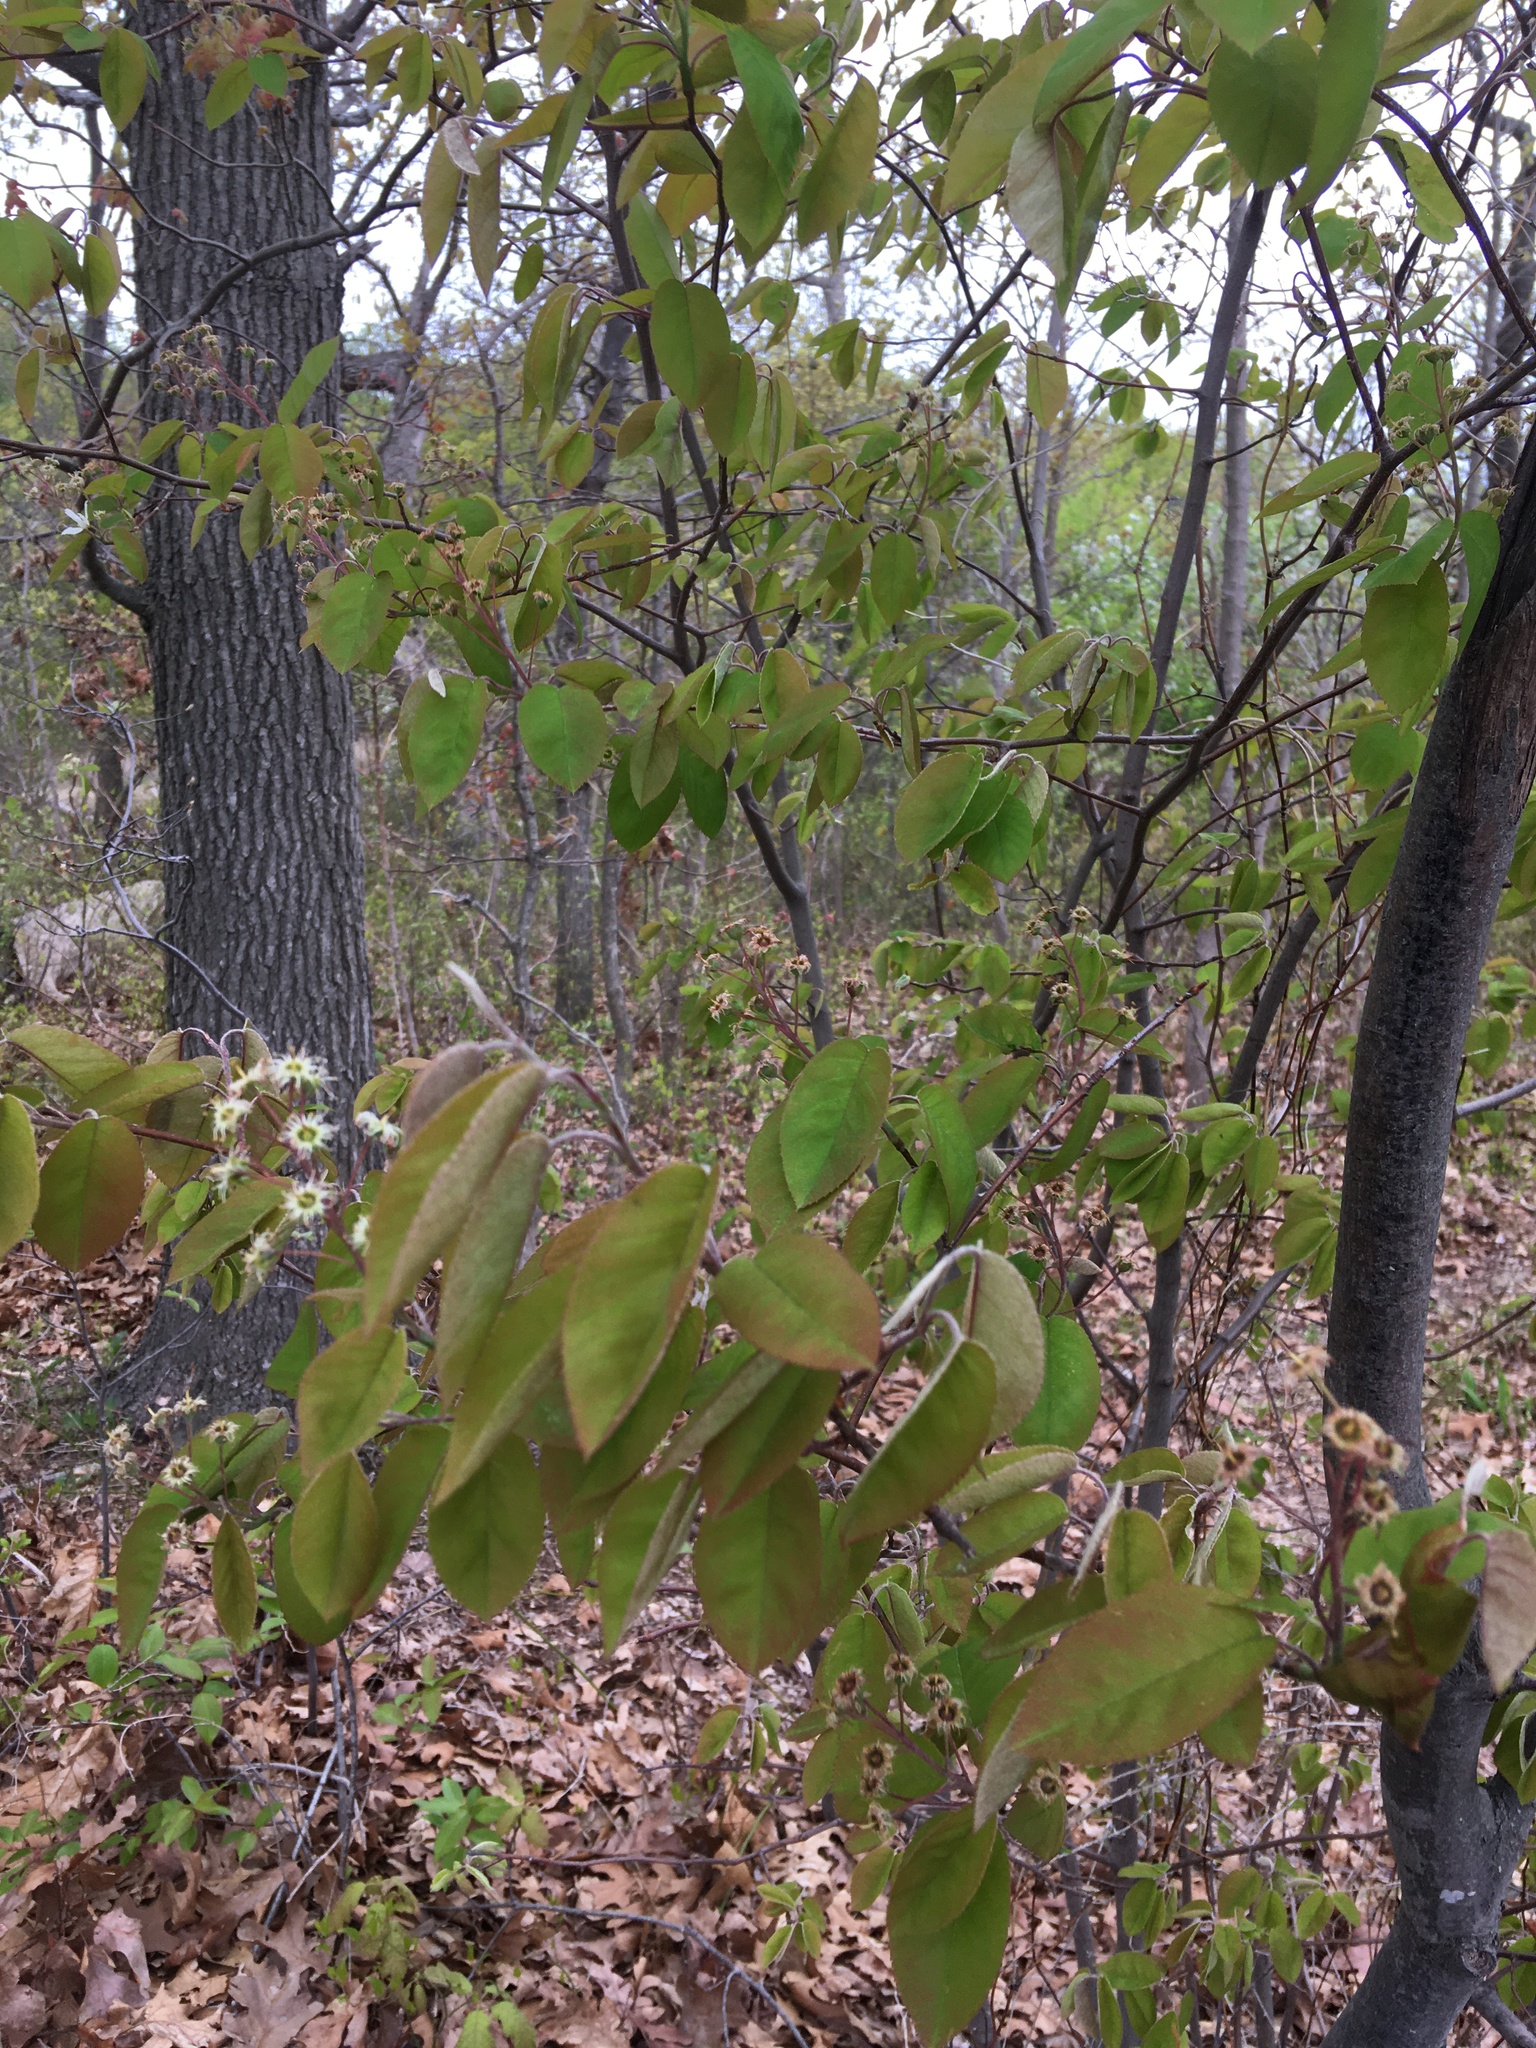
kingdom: Plantae
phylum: Tracheophyta
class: Magnoliopsida
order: Rosales
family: Rosaceae
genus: Amelanchier
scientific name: Amelanchier laevis
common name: Allegheny serviceberry
